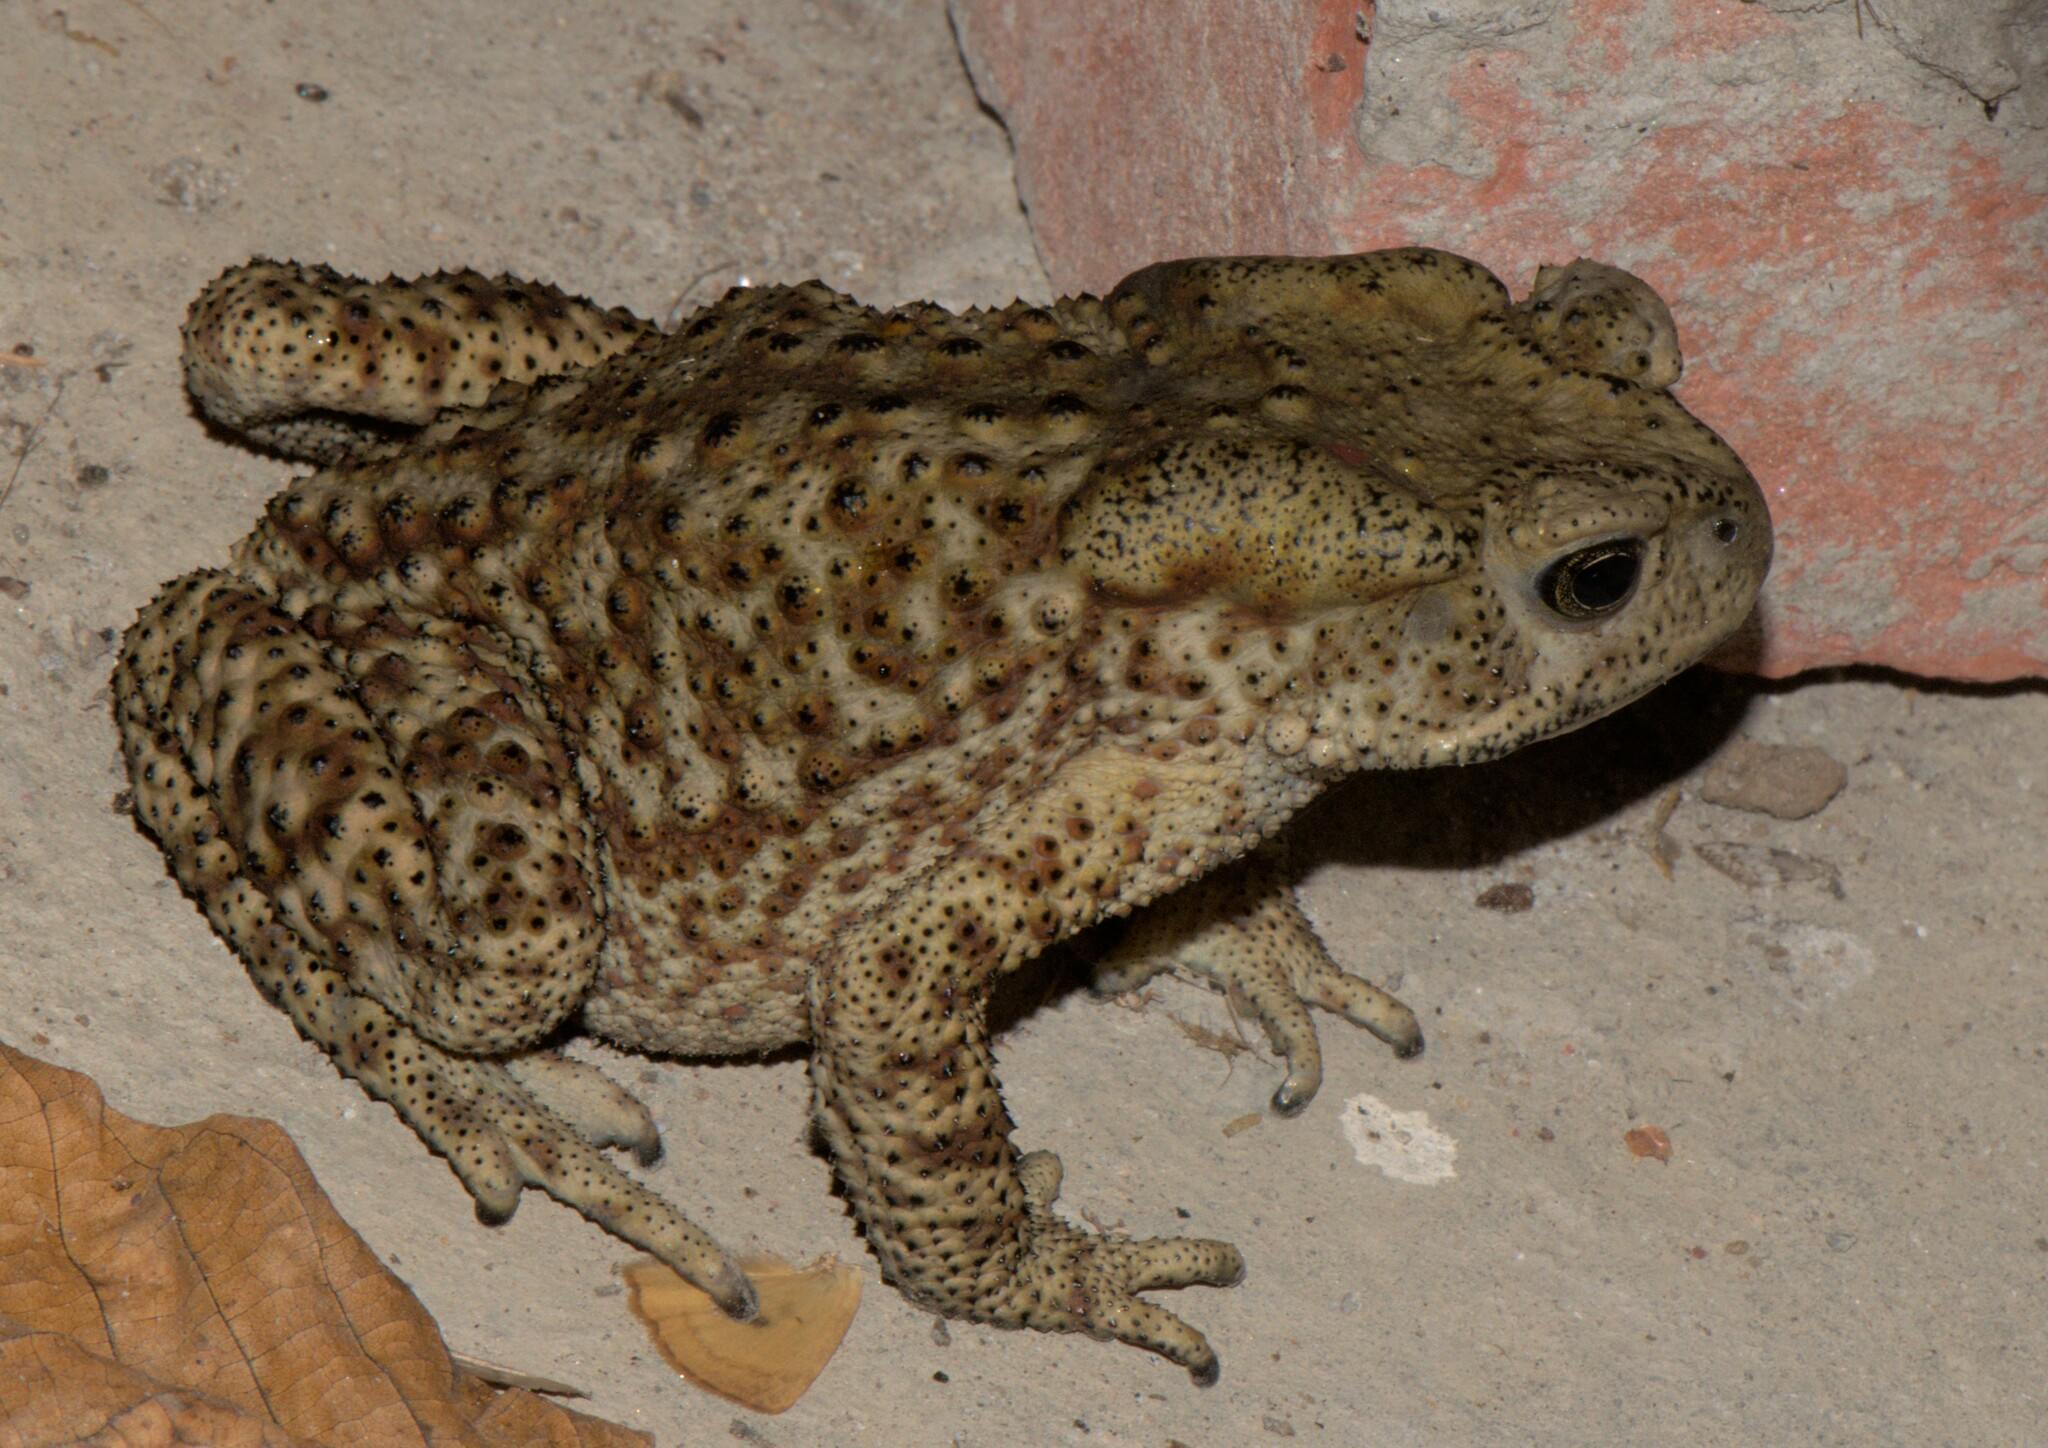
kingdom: Animalia
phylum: Chordata
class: Amphibia
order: Anura
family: Bufonidae
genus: Duttaphrynus
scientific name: Duttaphrynus himalayanus
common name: Günther's high altitude toad
